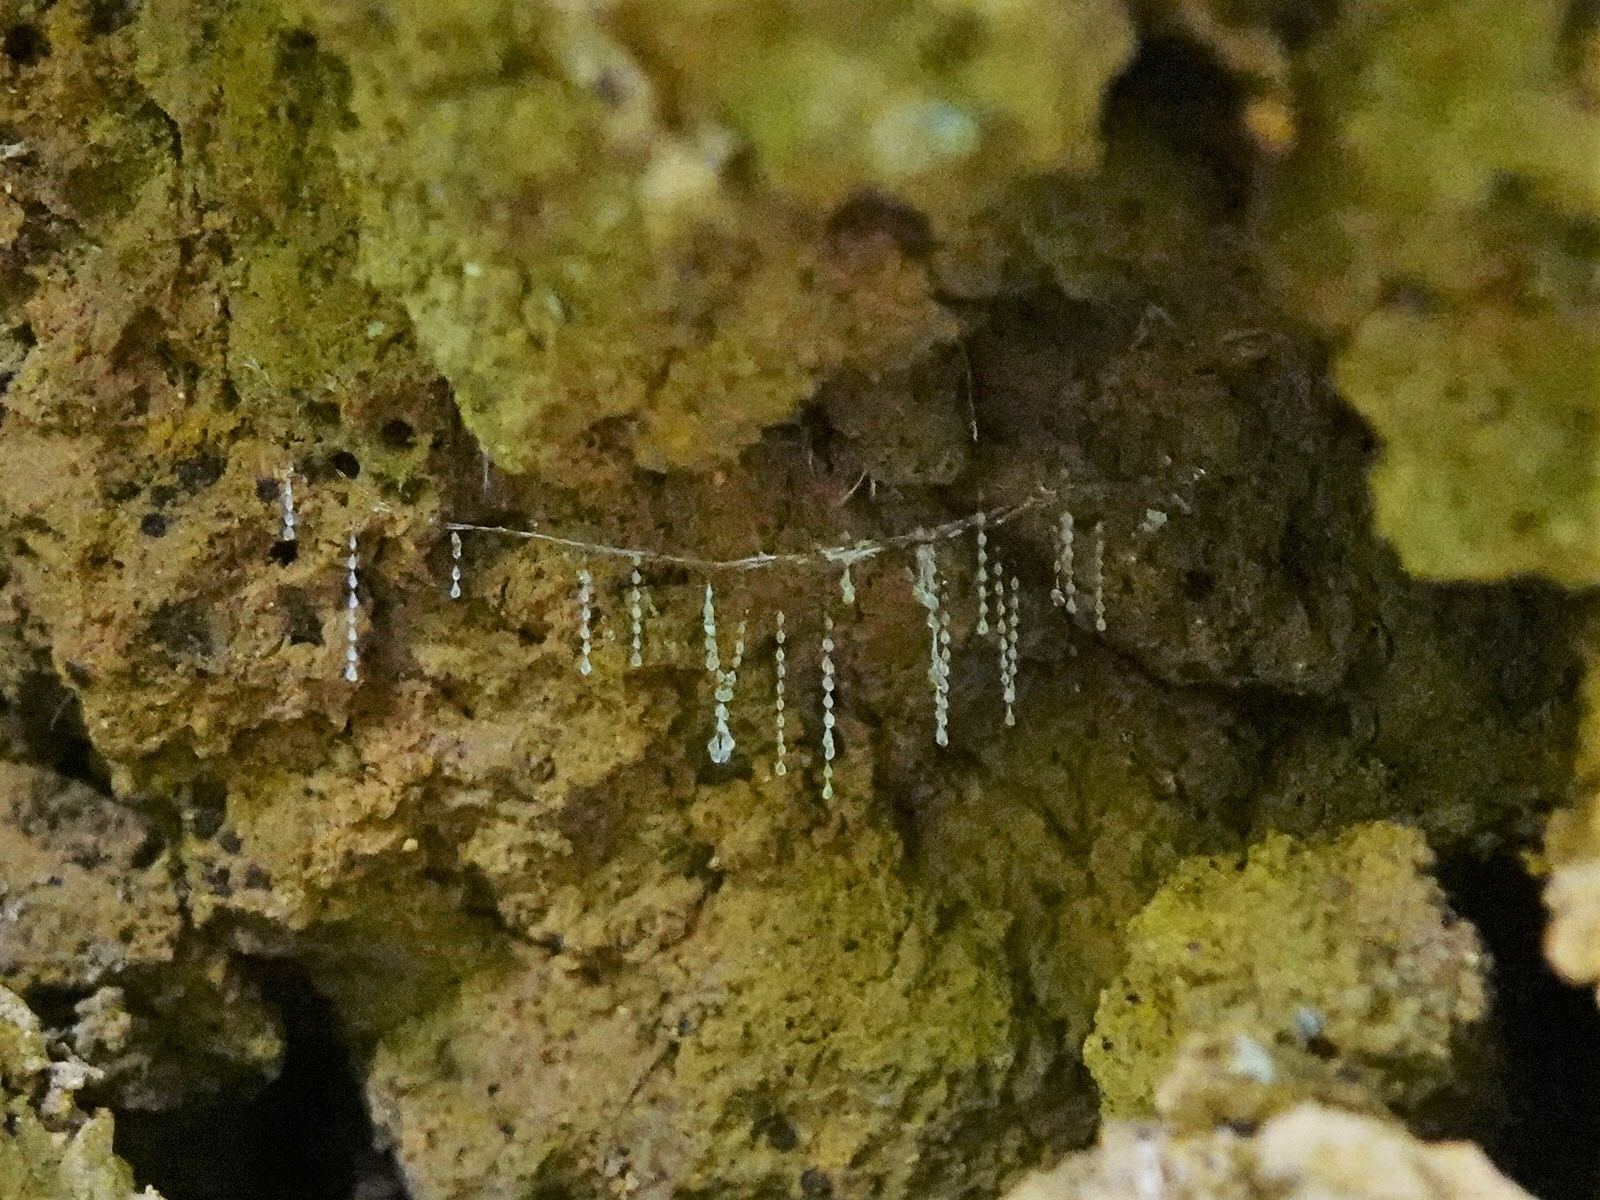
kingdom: Animalia
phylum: Arthropoda
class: Insecta
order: Diptera
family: Keroplatidae
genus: Arachnocampa
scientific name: Arachnocampa luminosa
